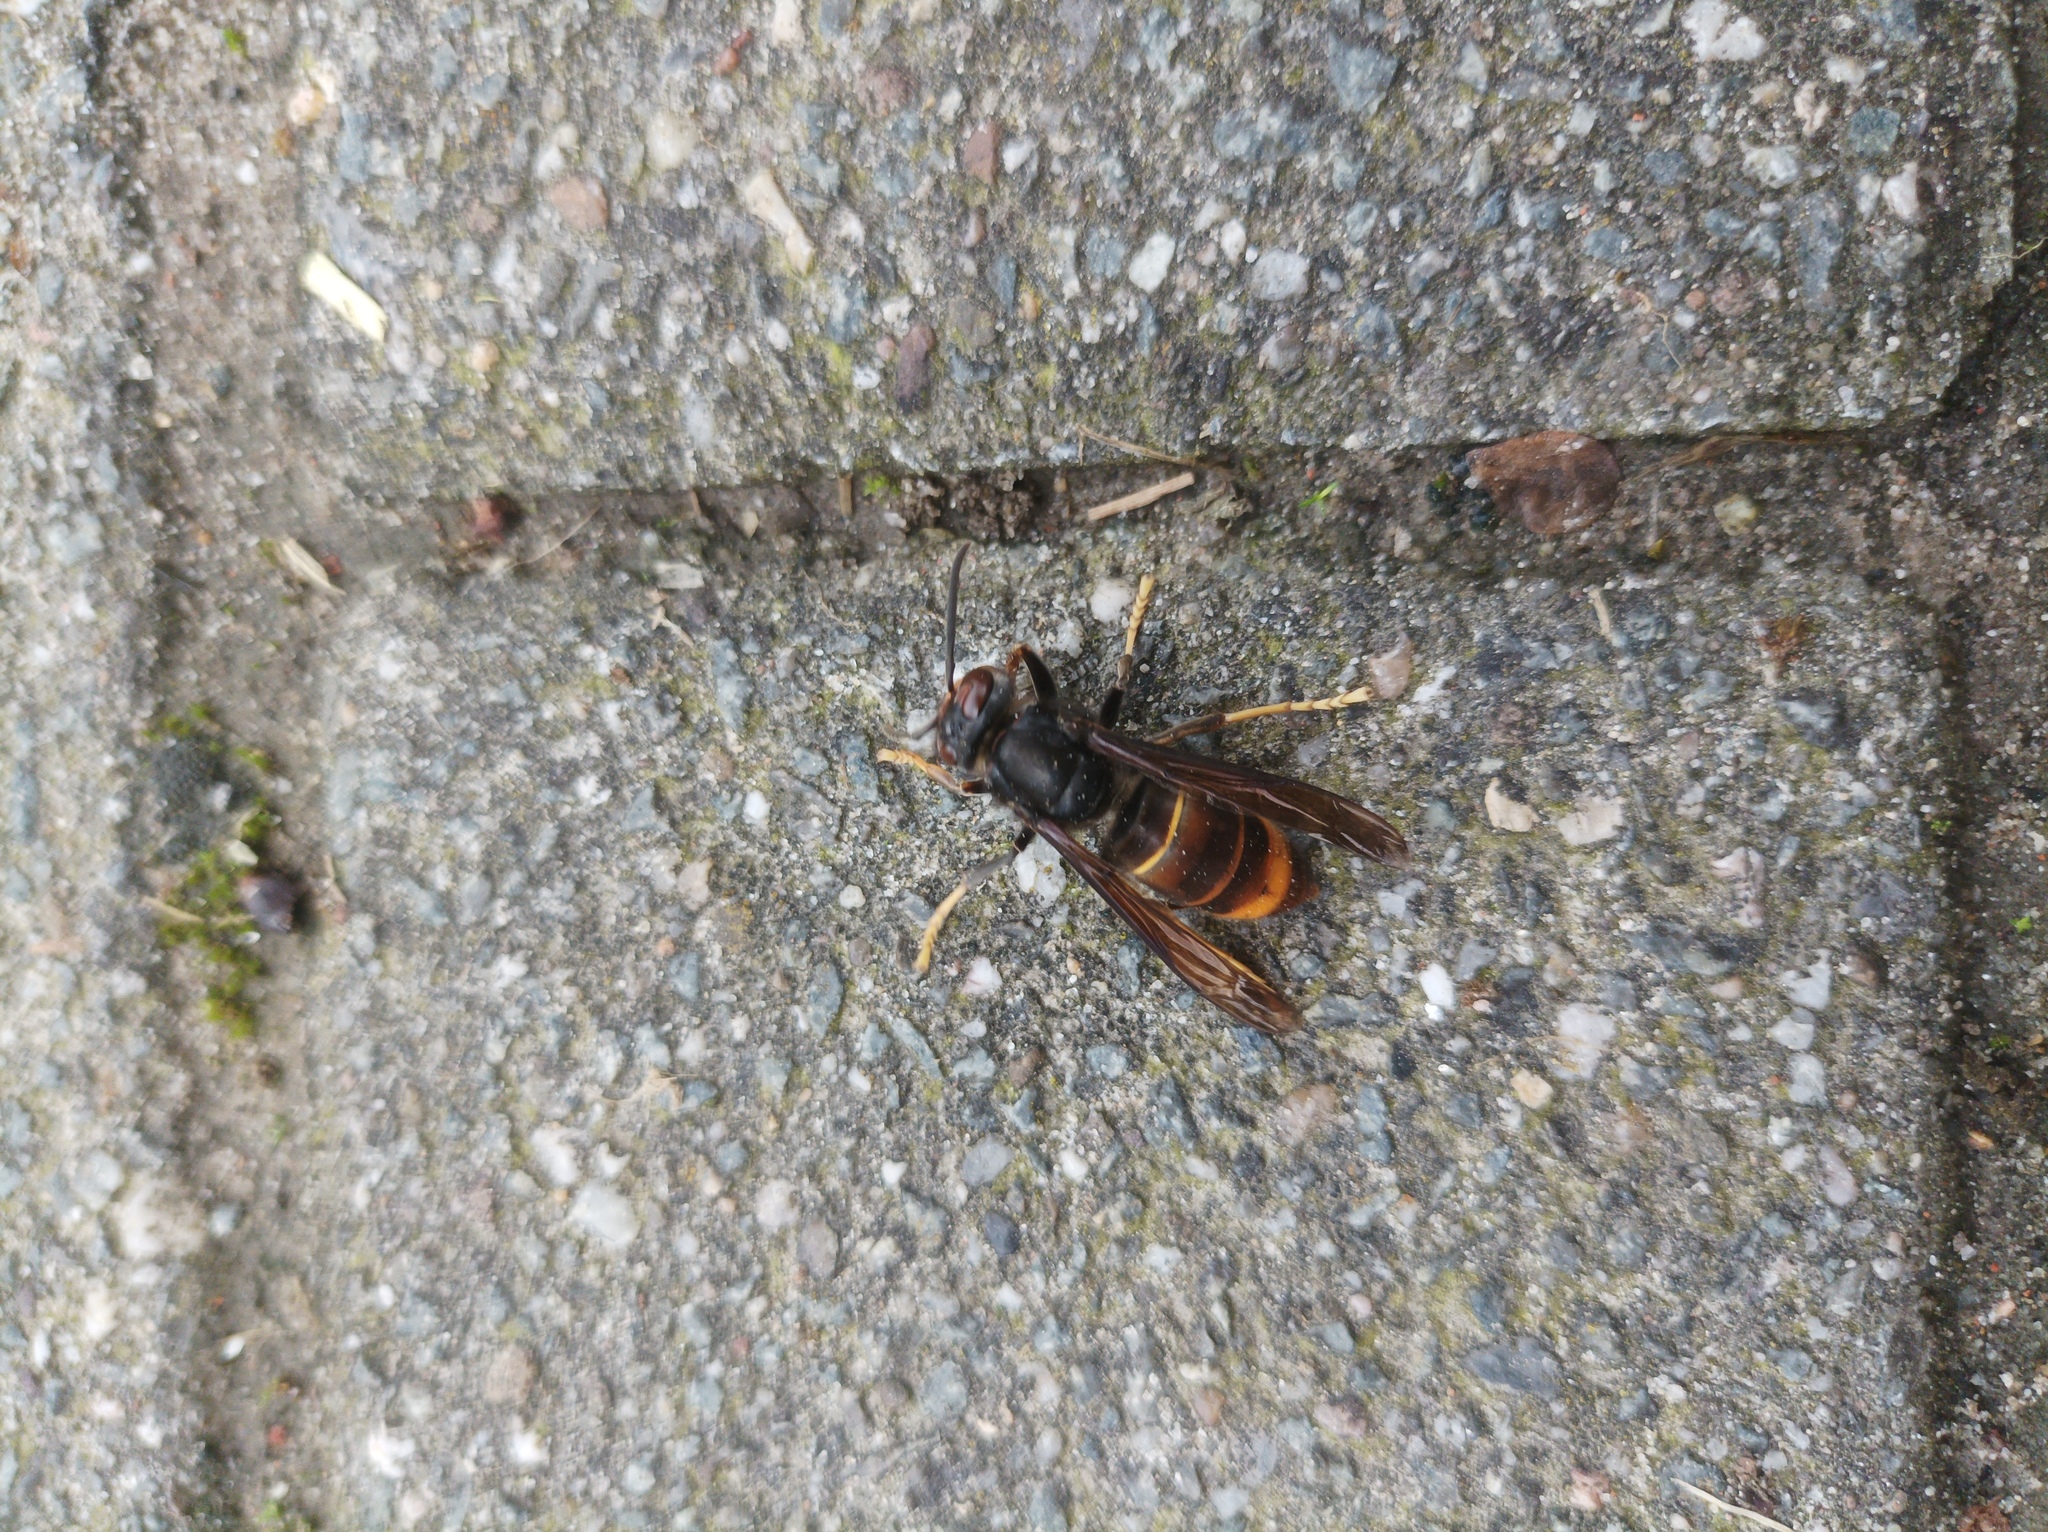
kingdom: Animalia
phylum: Arthropoda
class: Insecta
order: Hymenoptera
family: Vespidae
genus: Vespa
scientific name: Vespa velutina
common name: Asian hornet
